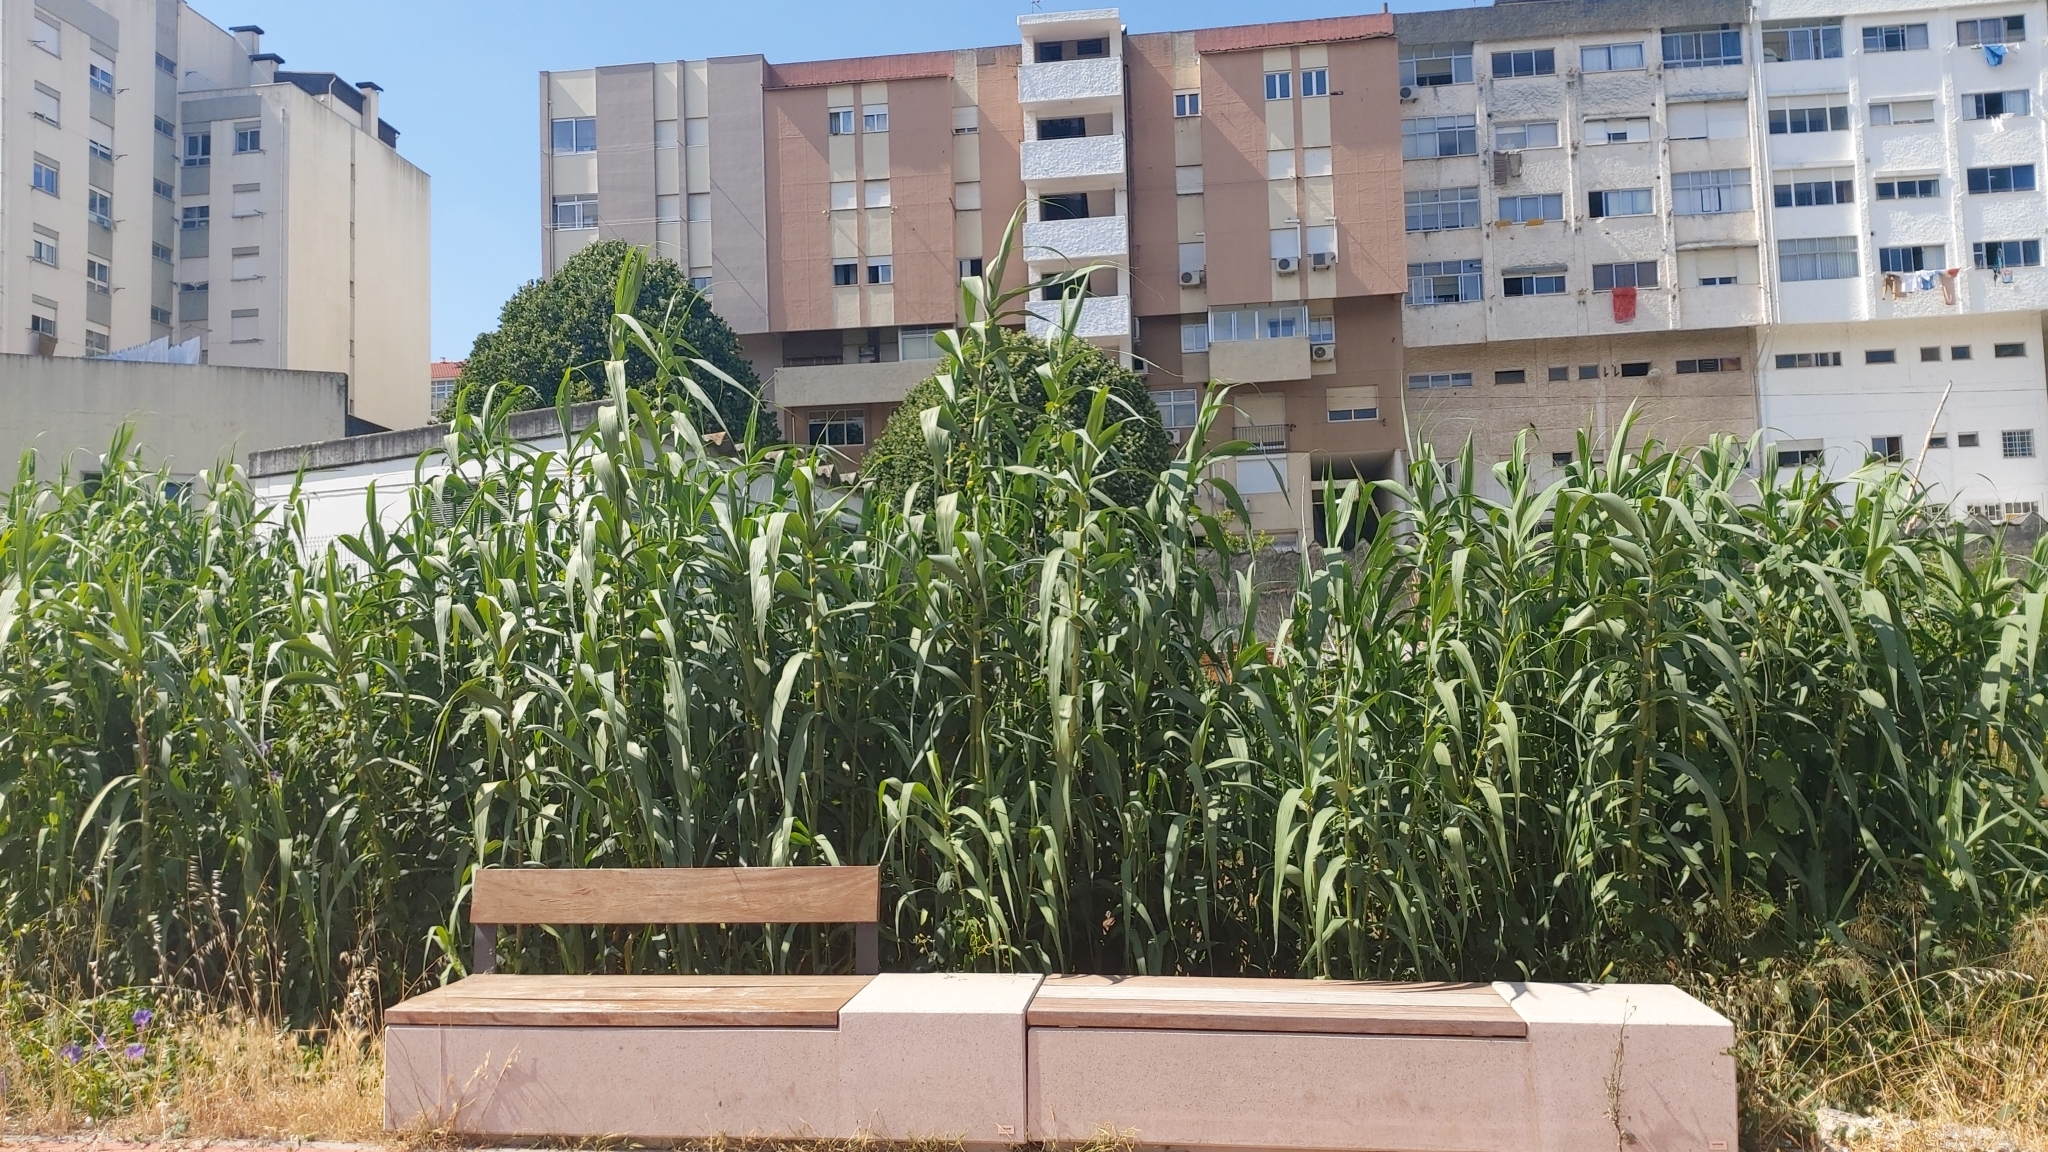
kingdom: Plantae
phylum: Tracheophyta
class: Liliopsida
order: Poales
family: Poaceae
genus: Arundo
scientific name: Arundo donax
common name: Giant reed
